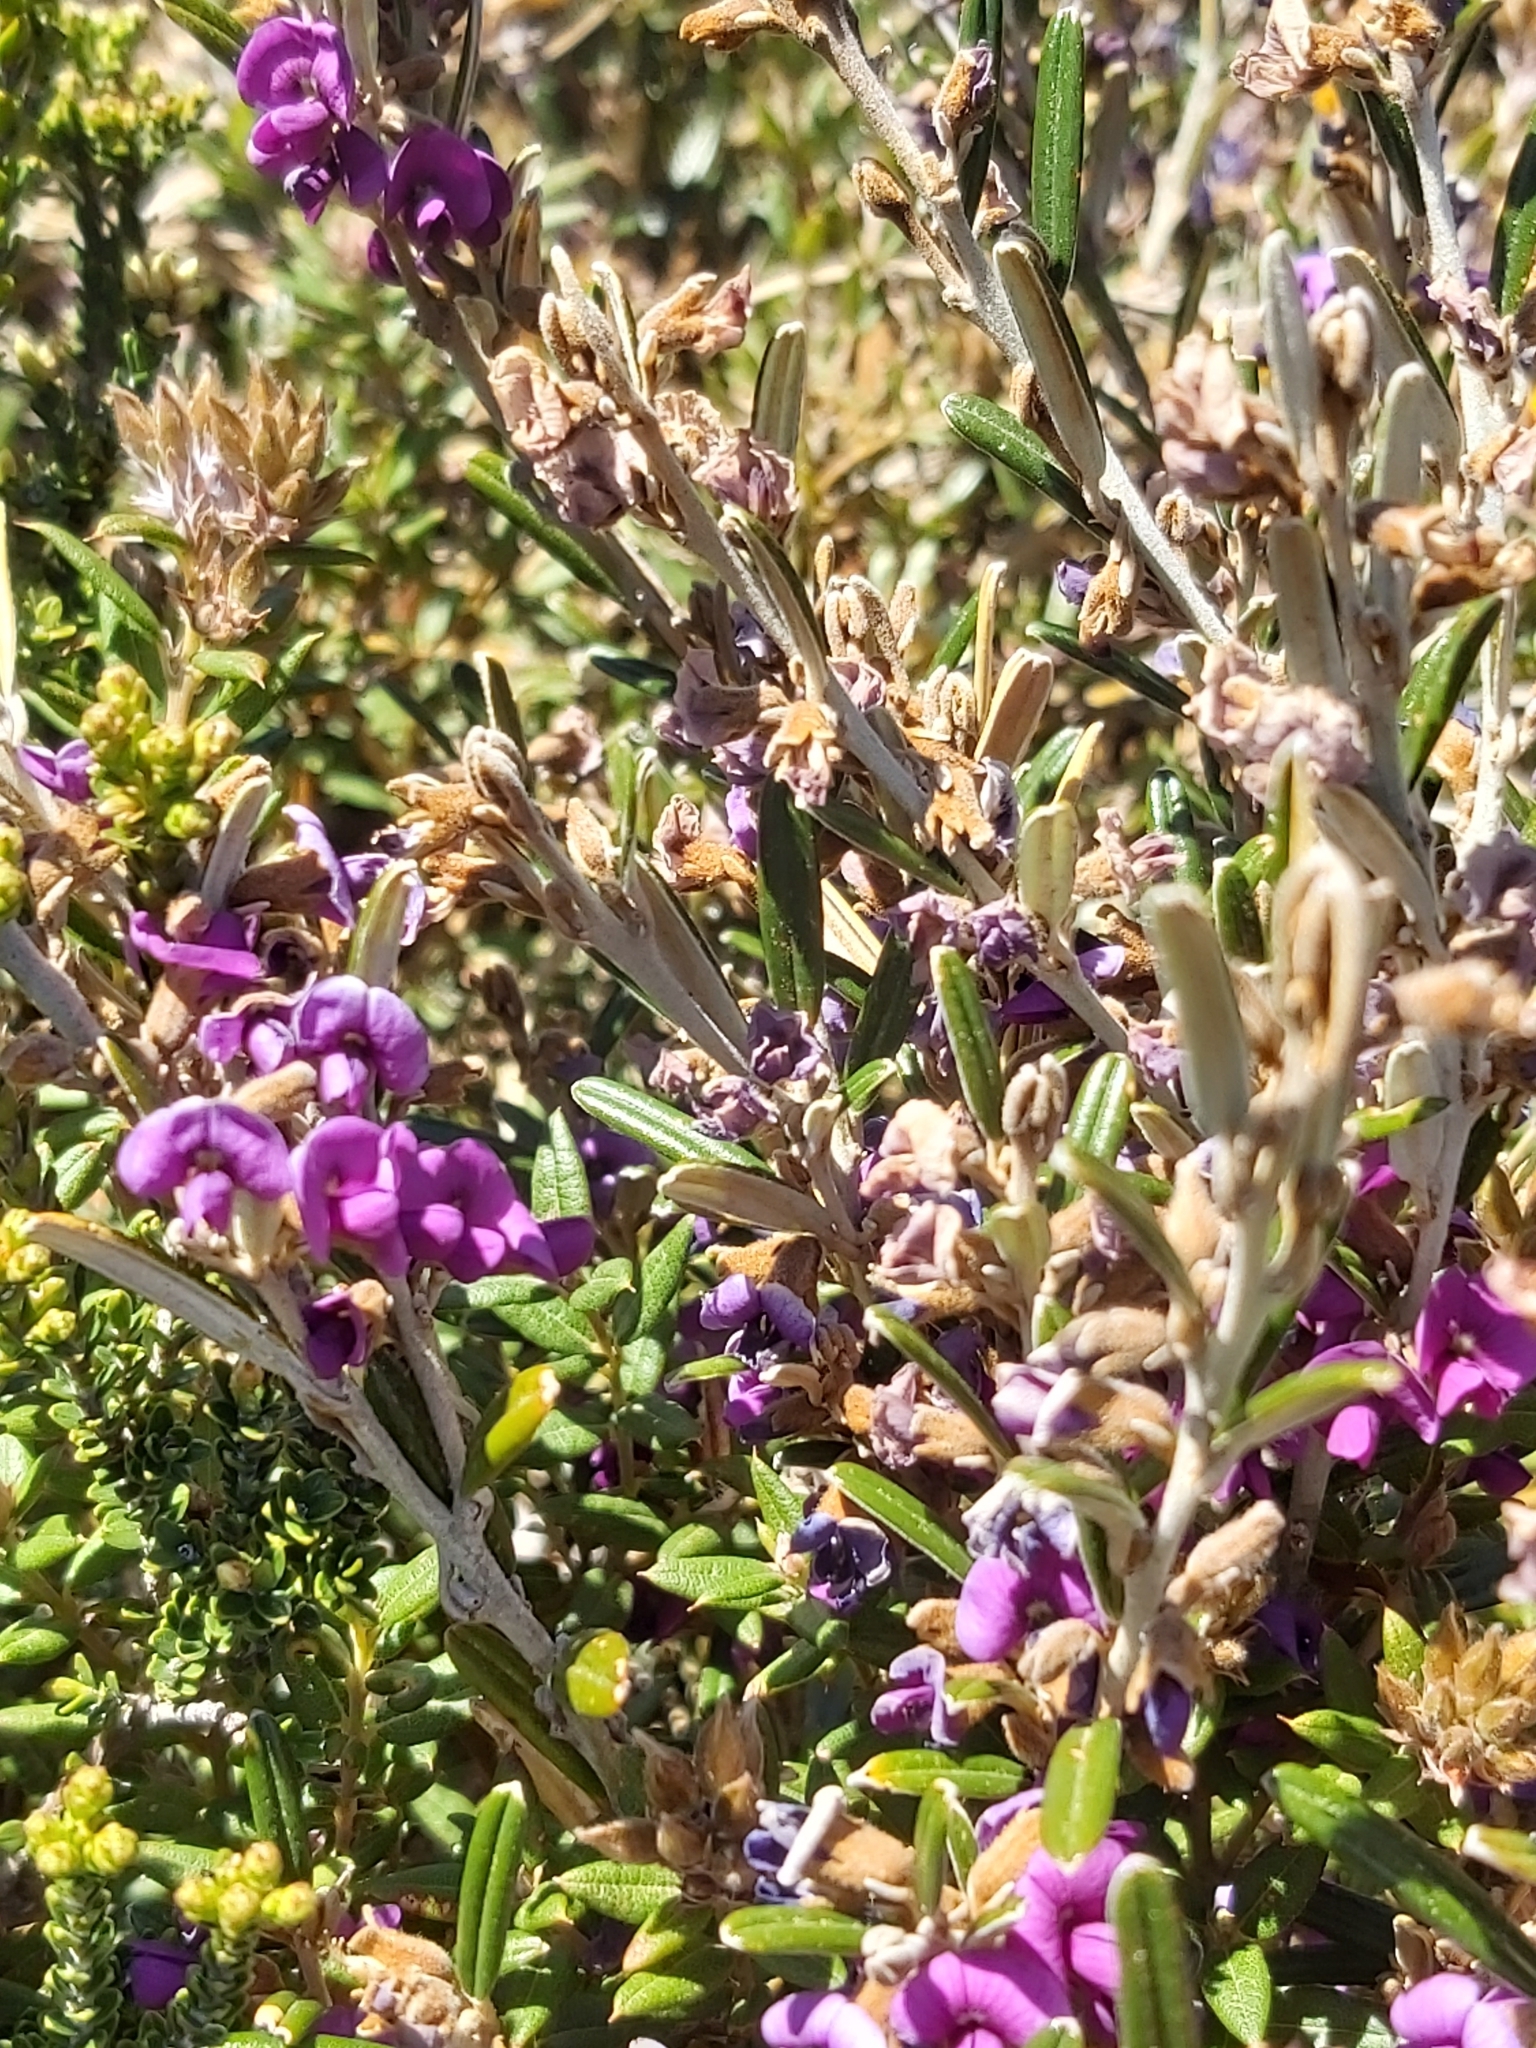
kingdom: Plantae
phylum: Tracheophyta
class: Magnoliopsida
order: Fabales
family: Fabaceae
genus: Hovea
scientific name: Hovea montana
